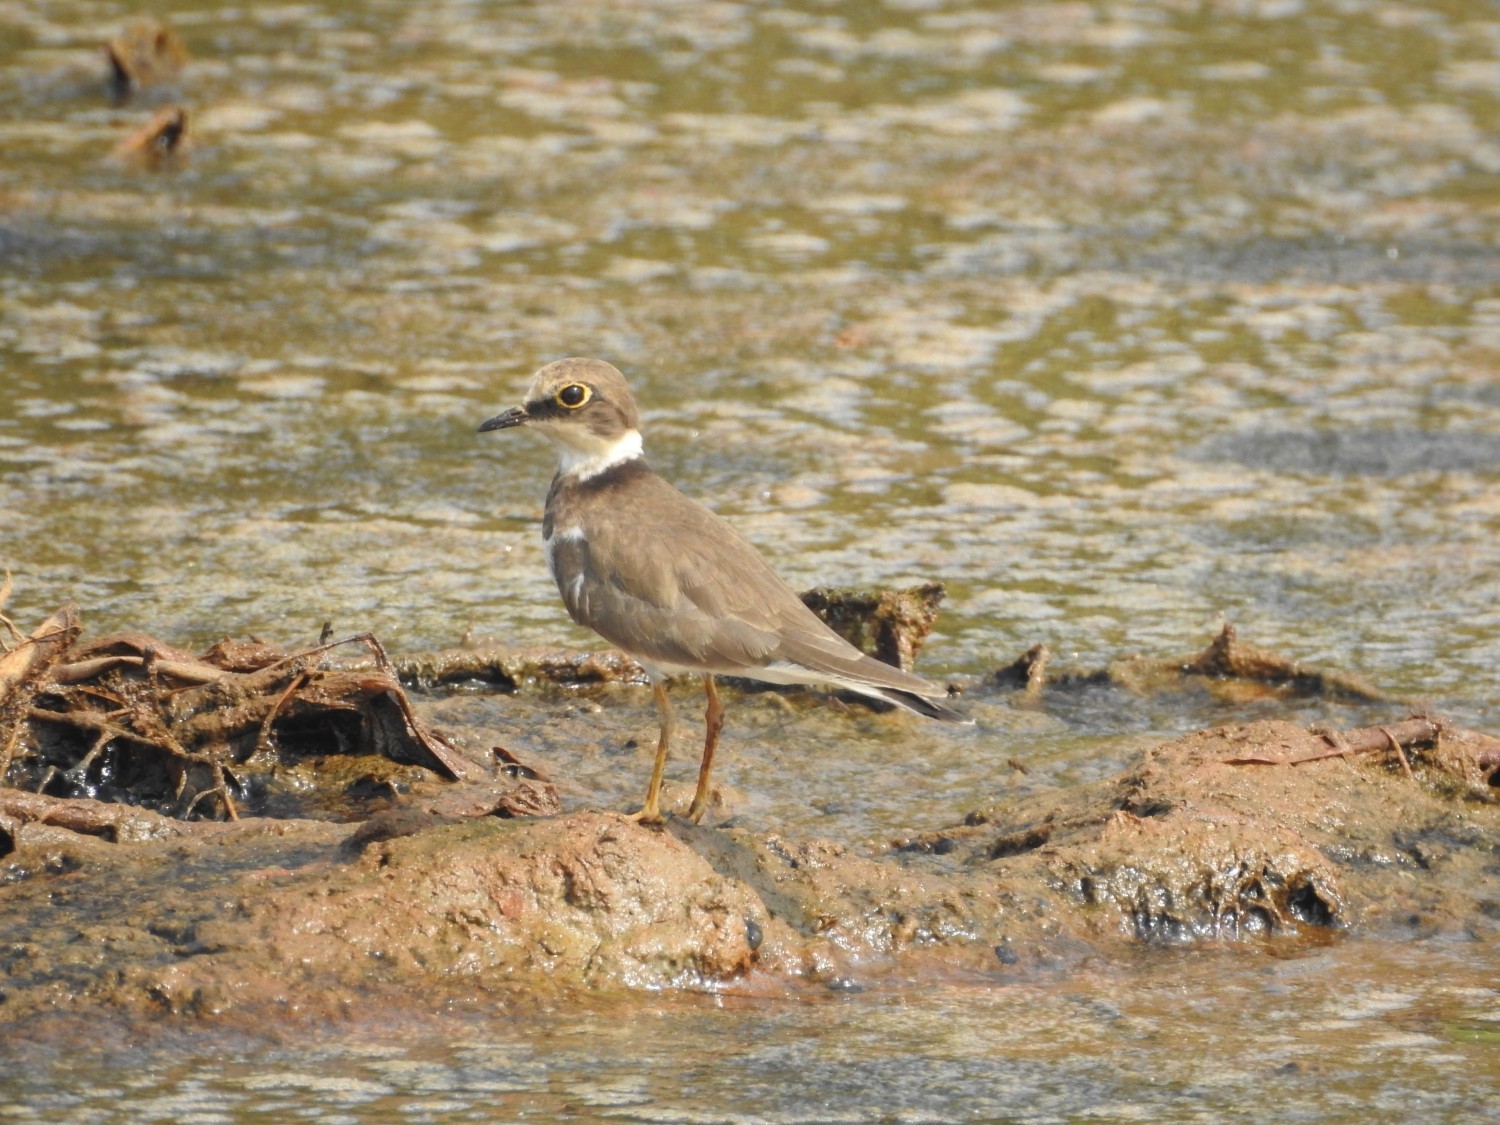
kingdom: Animalia
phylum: Chordata
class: Aves
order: Charadriiformes
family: Charadriidae
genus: Charadrius
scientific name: Charadrius dubius
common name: Little ringed plover
